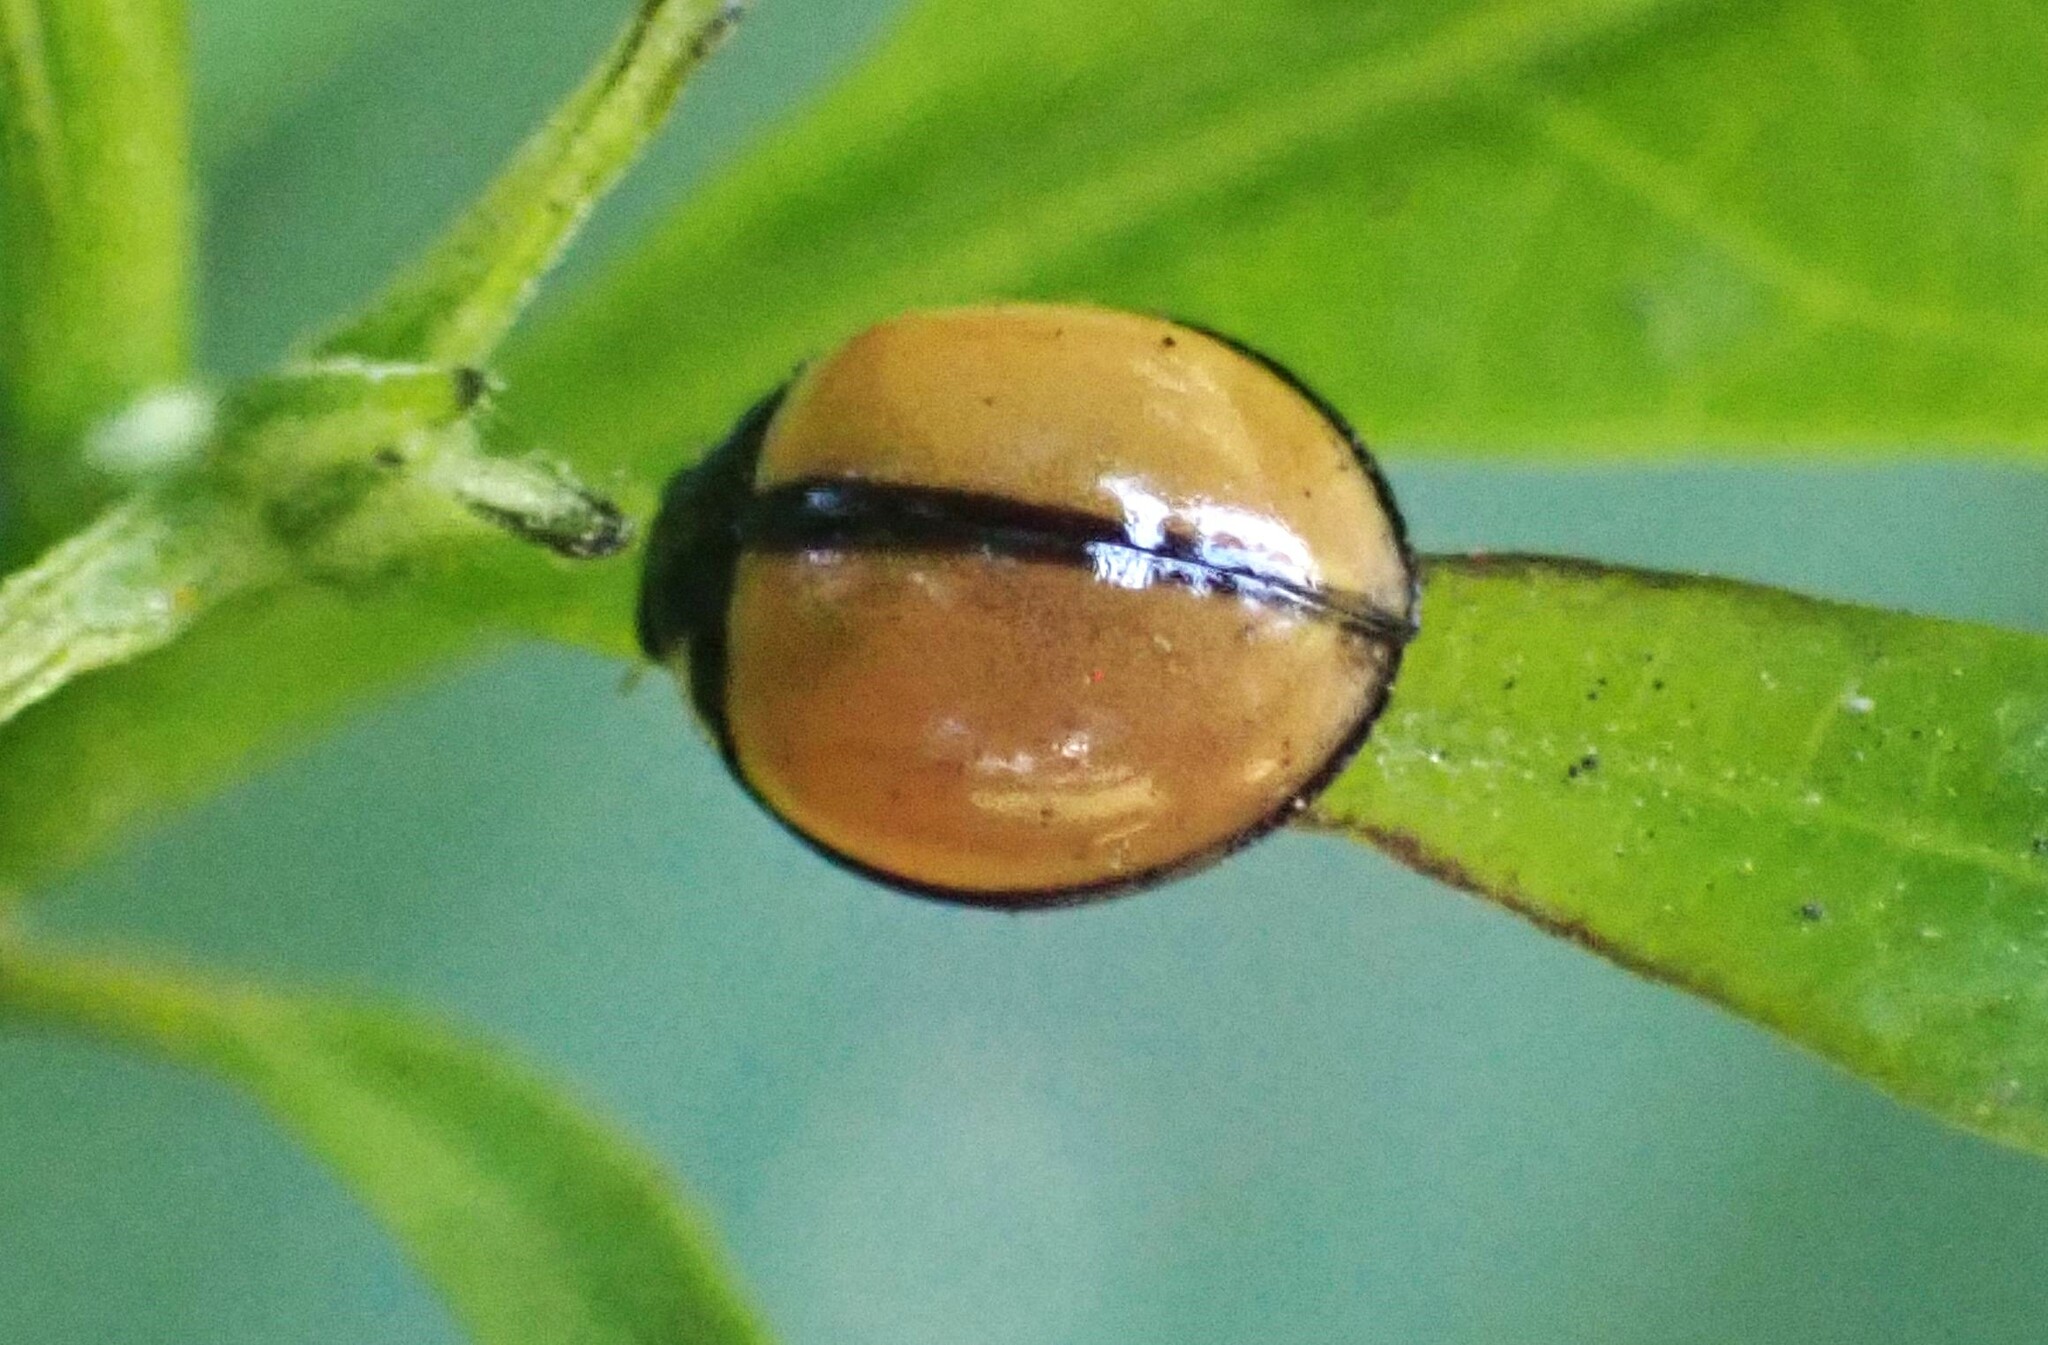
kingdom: Animalia
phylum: Arthropoda
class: Insecta
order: Coleoptera
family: Coccinellidae
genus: Cheilomenes
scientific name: Cheilomenes propinqua
